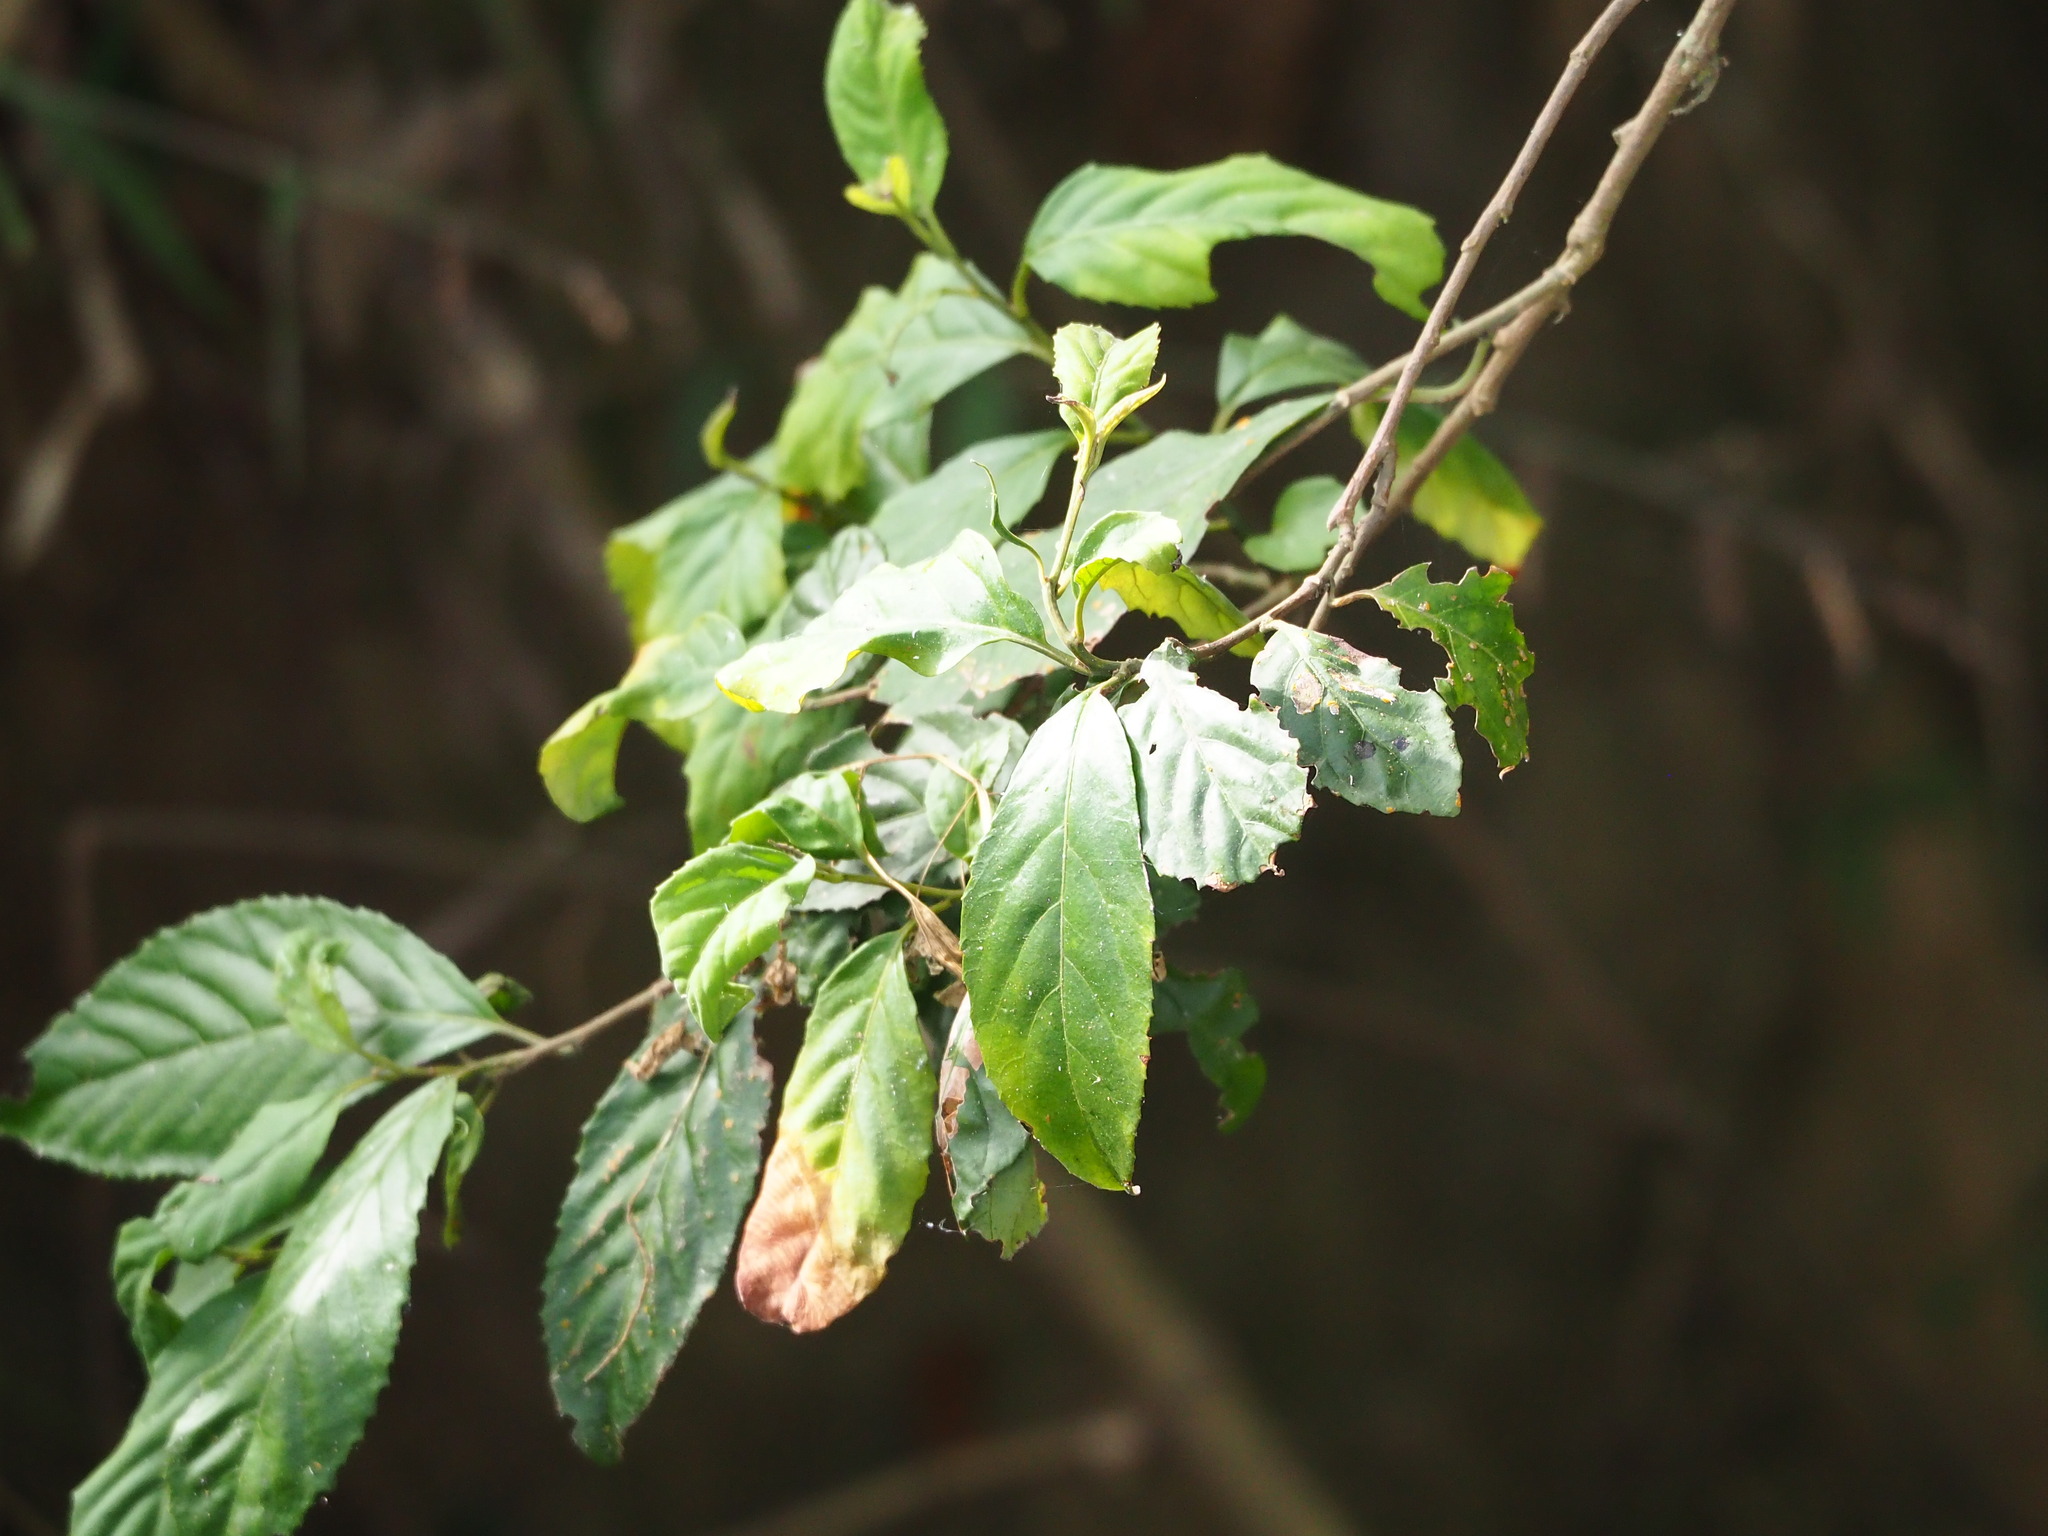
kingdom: Plantae
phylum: Tracheophyta
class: Magnoliopsida
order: Ericales
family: Primulaceae
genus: Maesa
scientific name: Maesa perlaria
